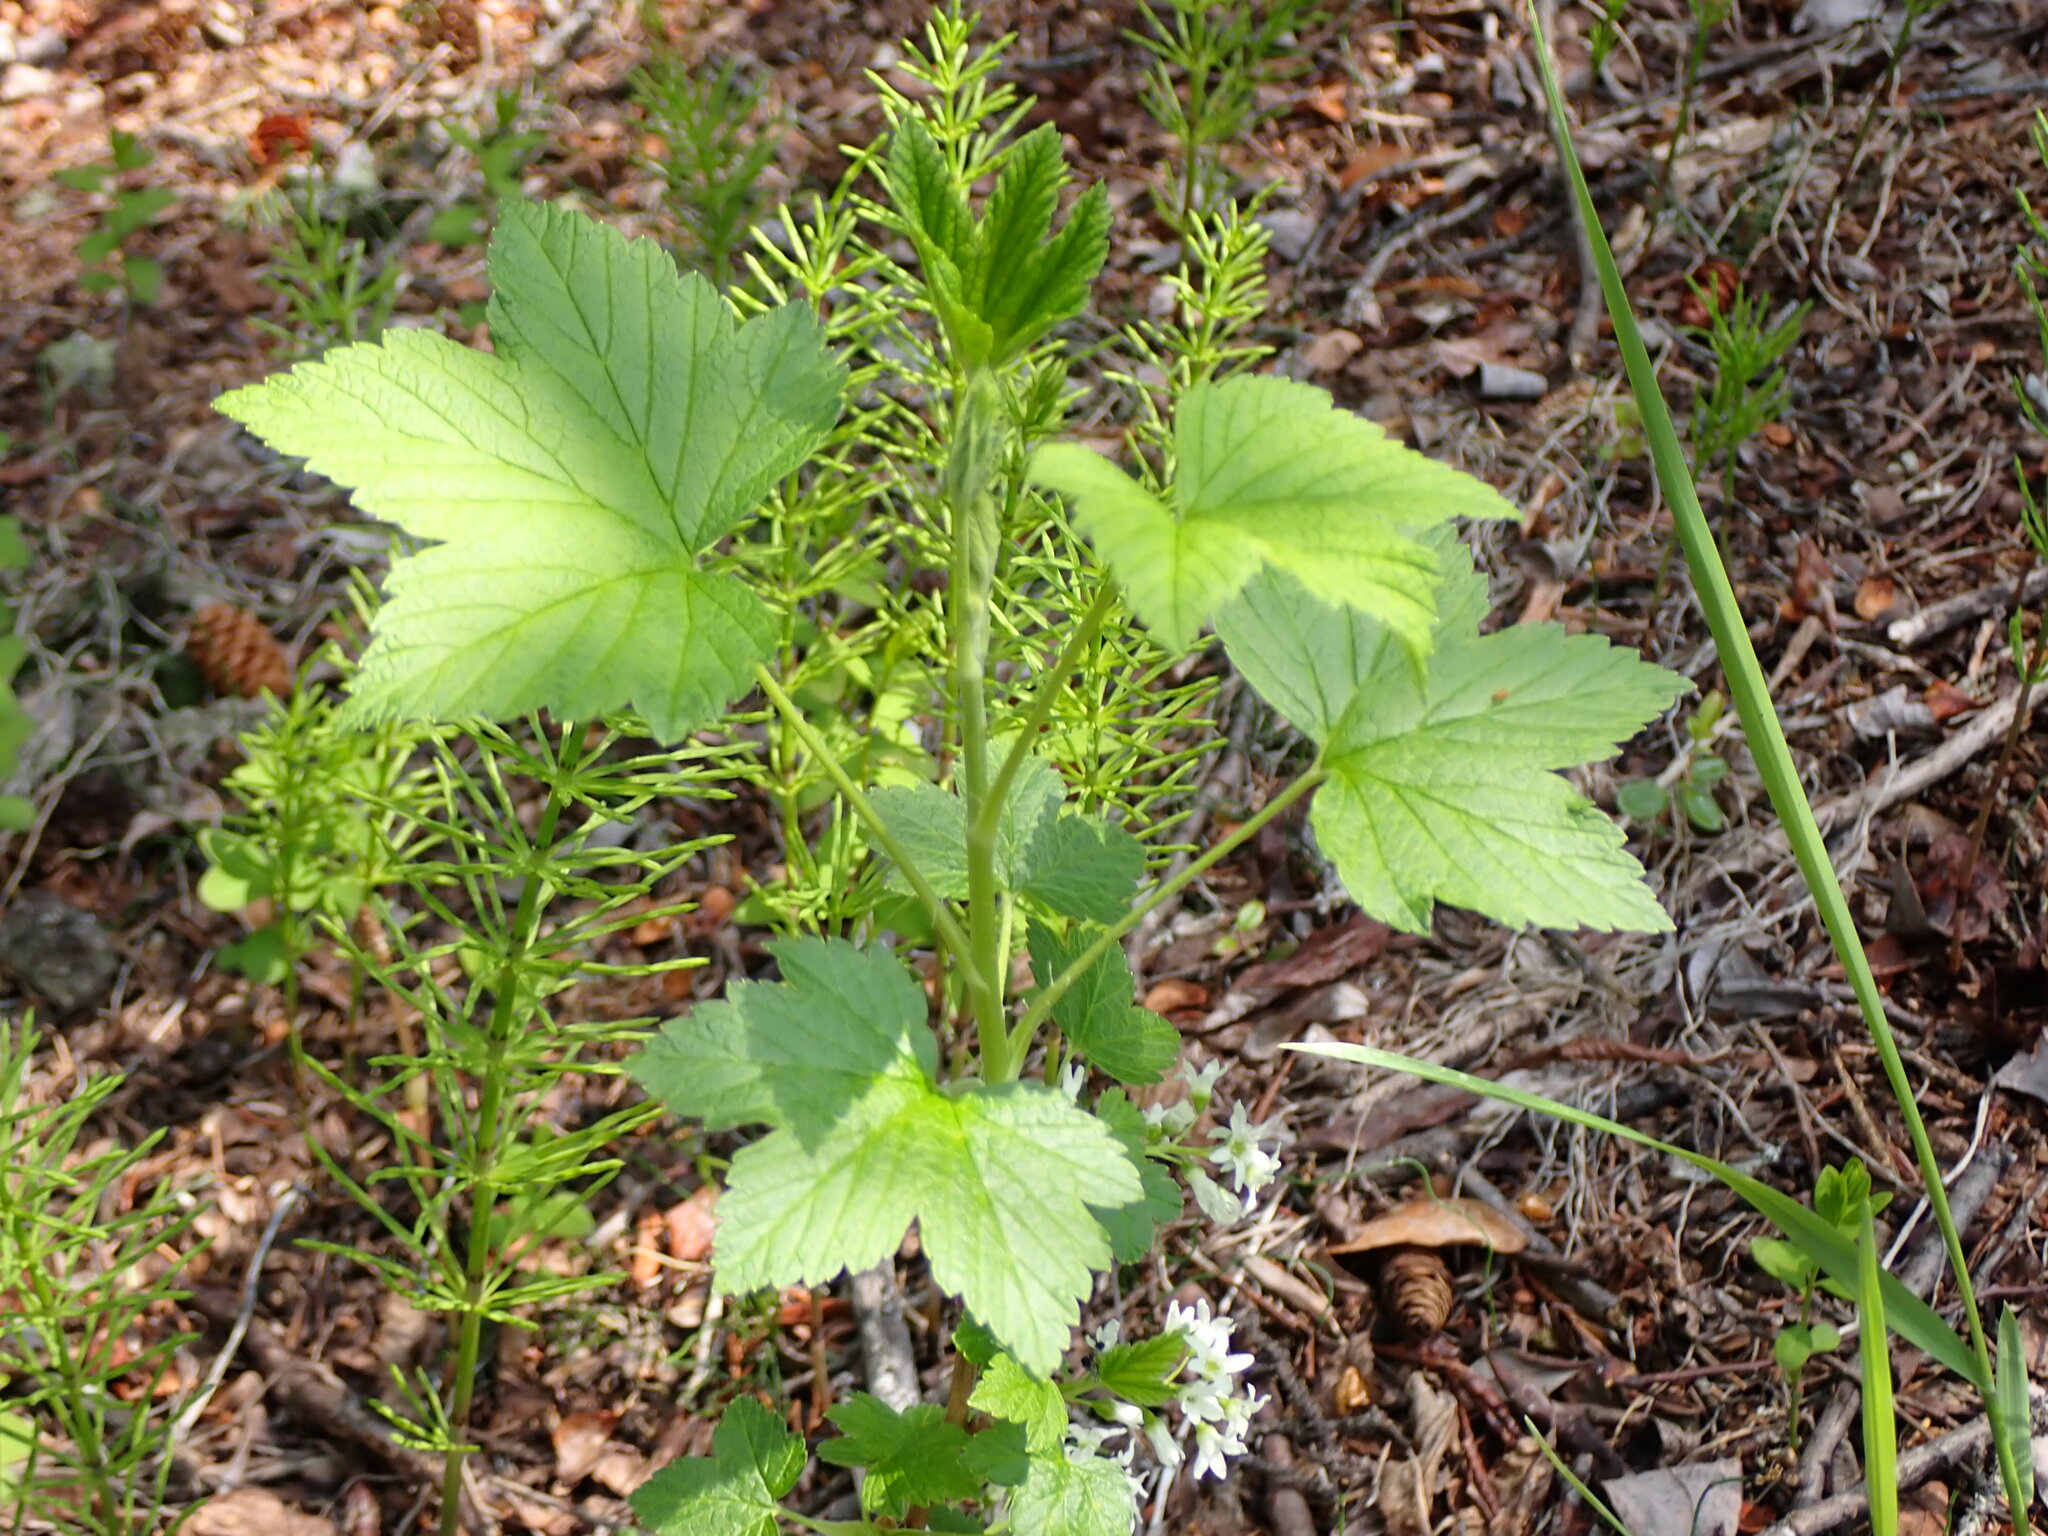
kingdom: Plantae
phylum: Tracheophyta
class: Magnoliopsida
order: Saxifragales
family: Grossulariaceae
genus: Ribes
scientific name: Ribes hudsonianum
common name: Northern black currant
